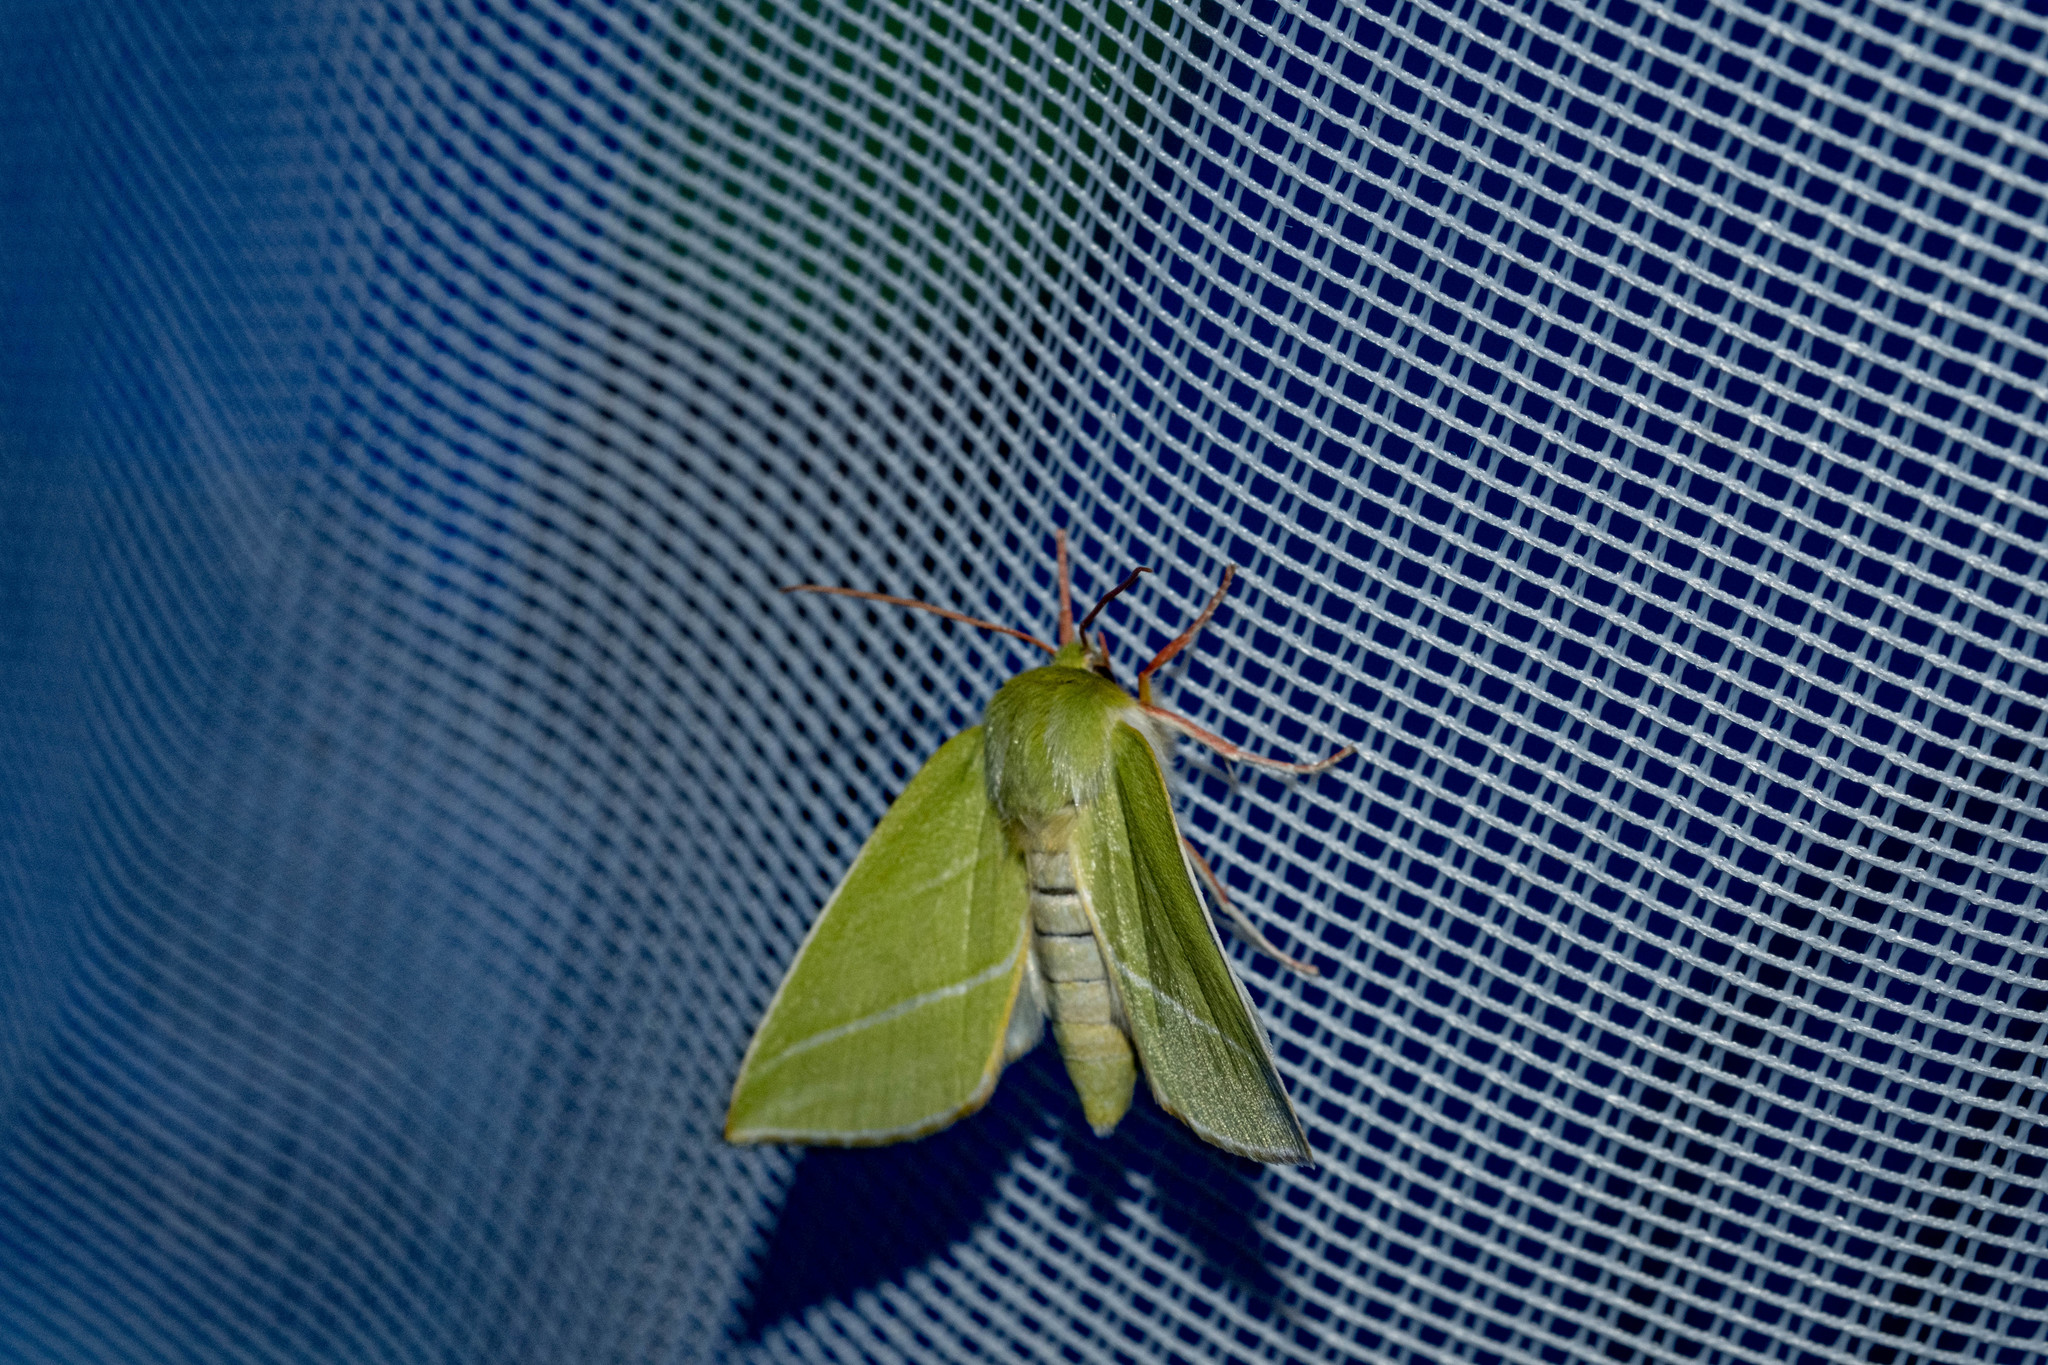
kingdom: Animalia
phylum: Arthropoda
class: Insecta
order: Lepidoptera
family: Nolidae
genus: Pseudoips
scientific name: Pseudoips prasinana
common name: Green silver-lines
